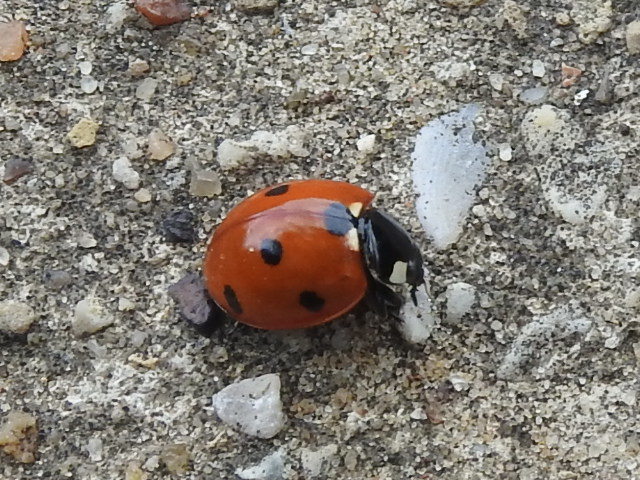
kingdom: Animalia
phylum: Arthropoda
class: Insecta
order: Coleoptera
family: Coccinellidae
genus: Coccinella
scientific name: Coccinella septempunctata
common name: Sevenspotted lady beetle
